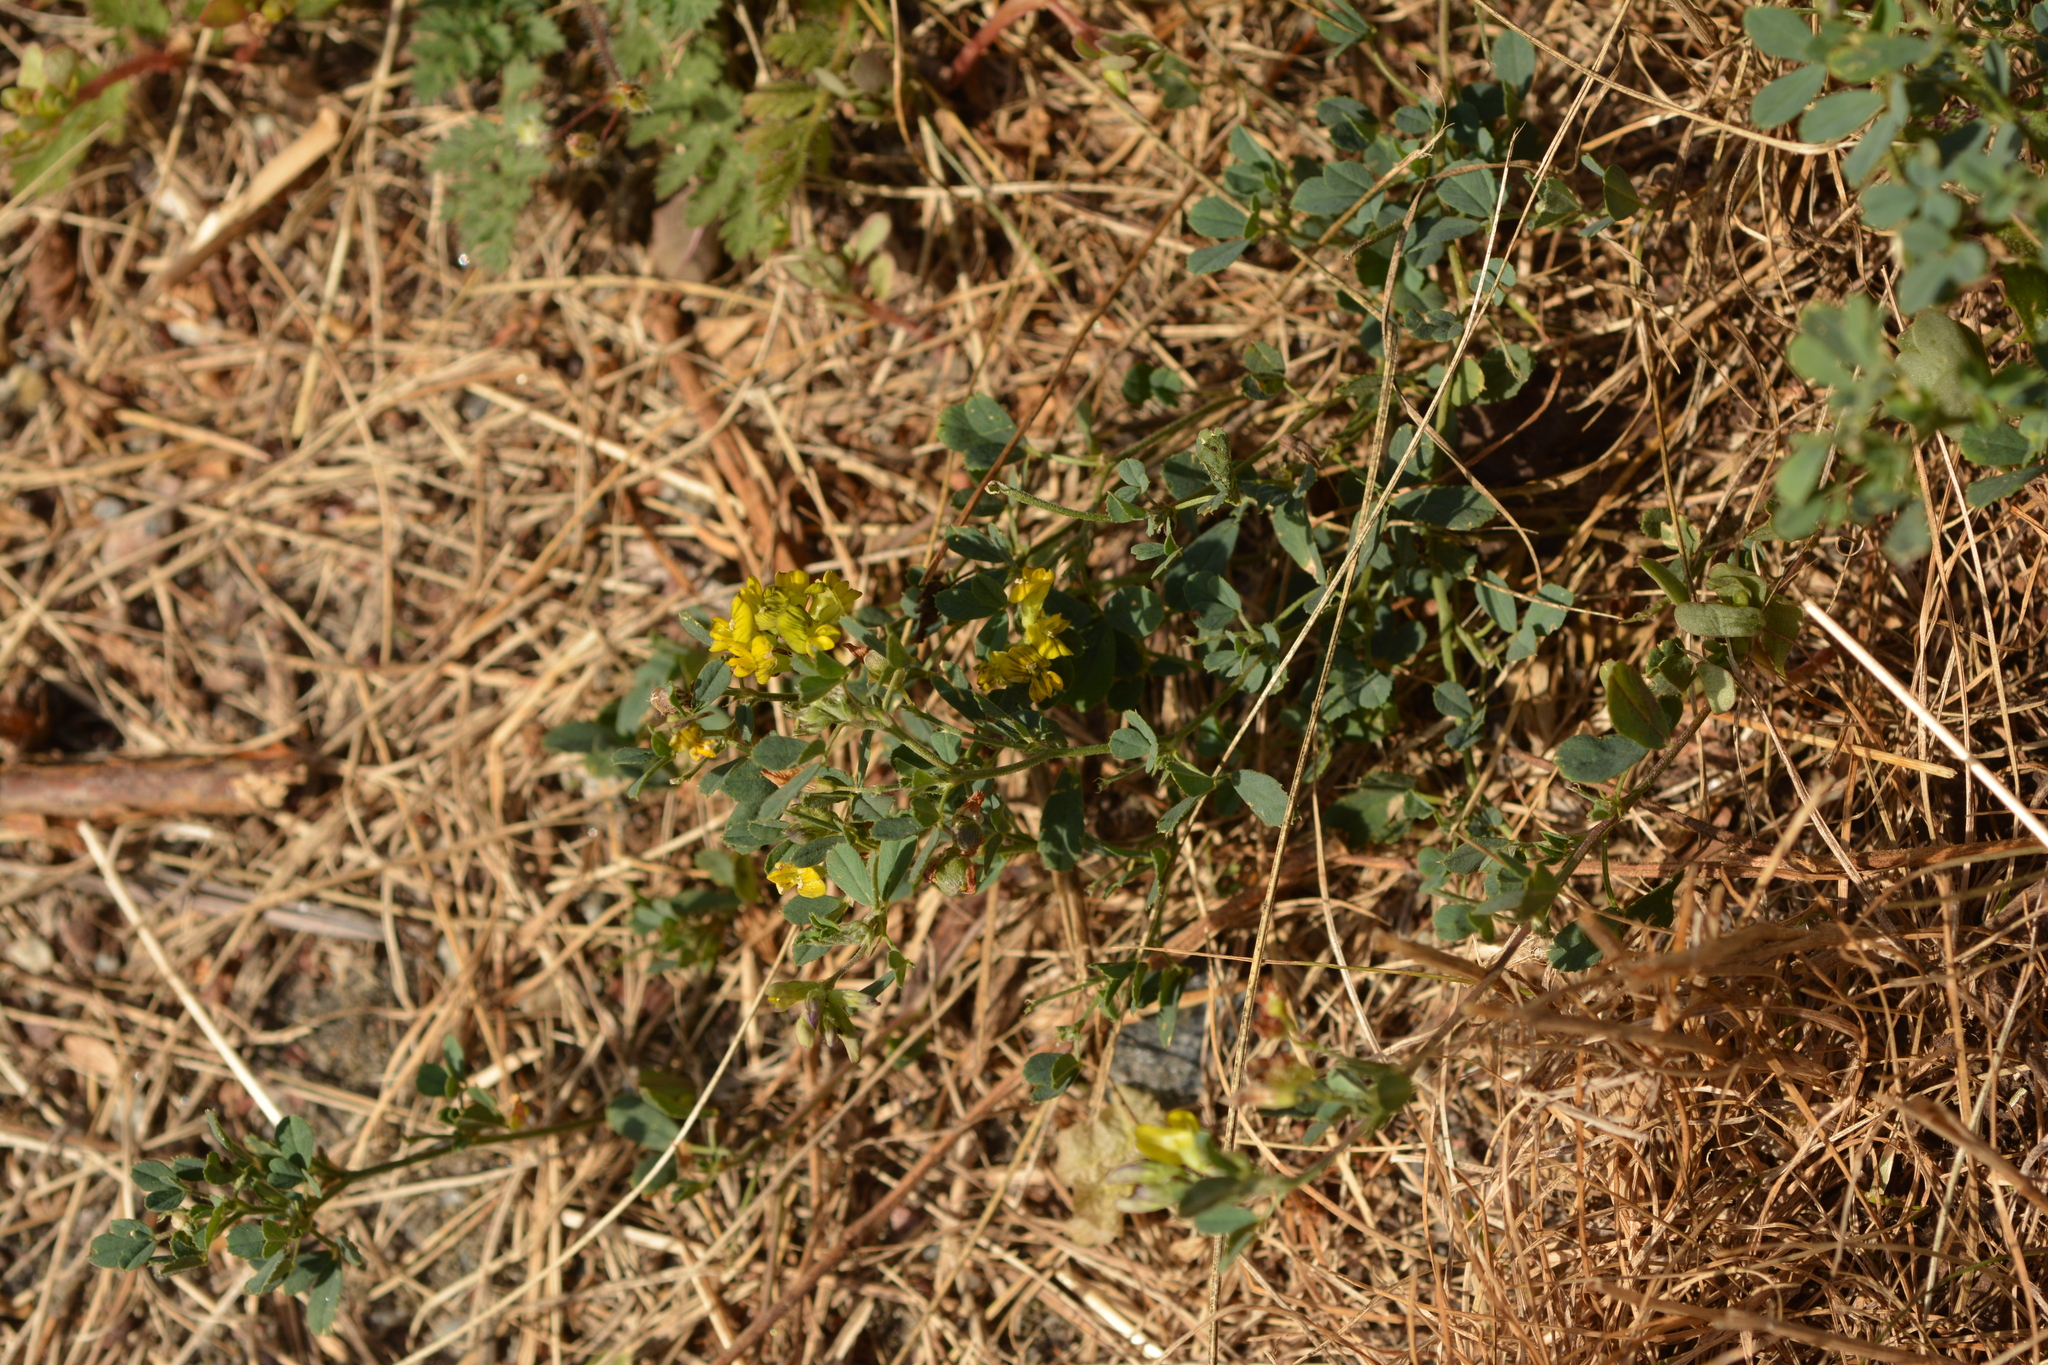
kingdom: Plantae
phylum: Tracheophyta
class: Magnoliopsida
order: Fabales
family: Fabaceae
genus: Medicago
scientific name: Medicago varia
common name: Sand lucerne
